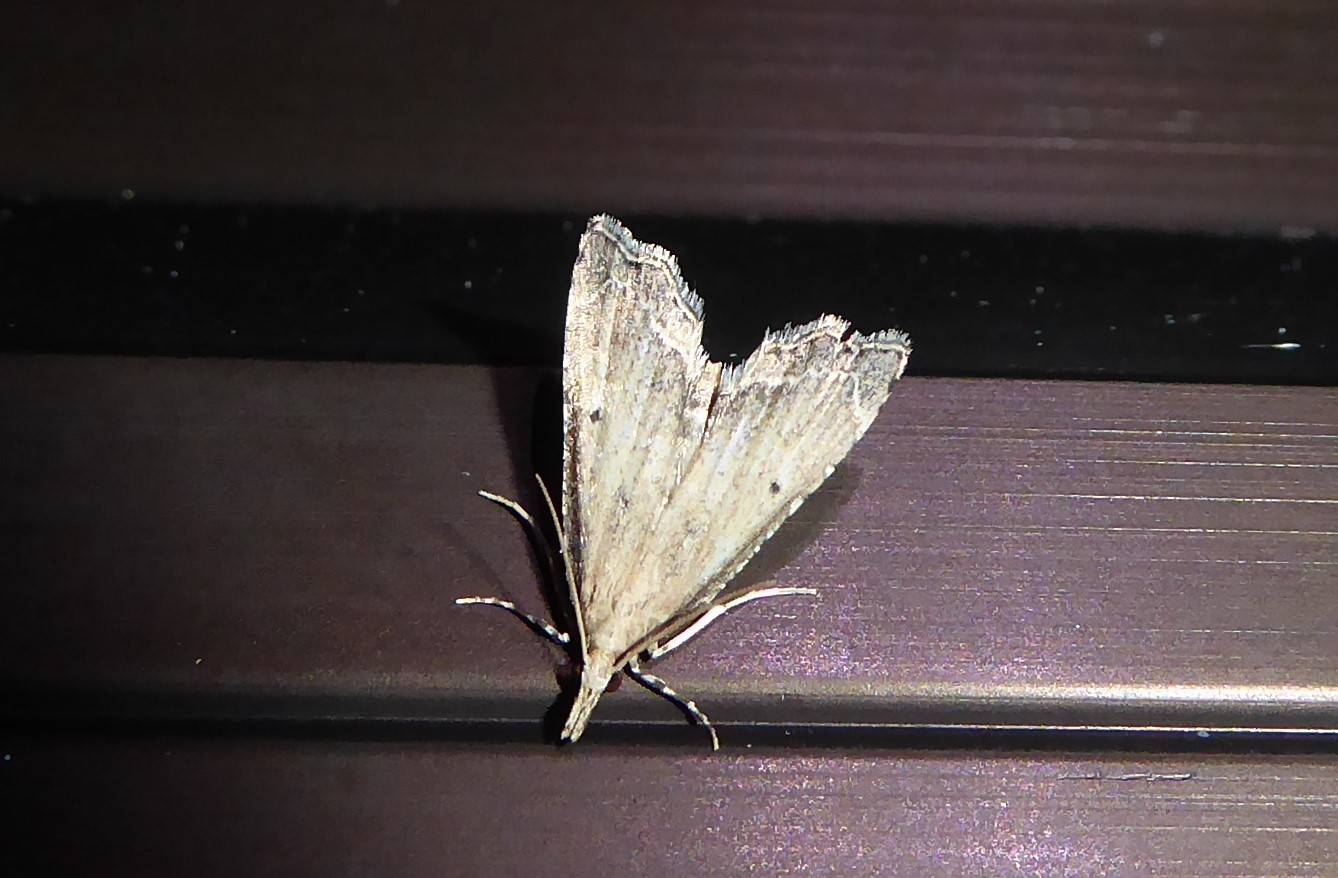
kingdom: Animalia
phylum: Arthropoda
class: Insecta
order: Lepidoptera
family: Crambidae
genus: Diplopseustis
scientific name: Diplopseustis perieresalis
